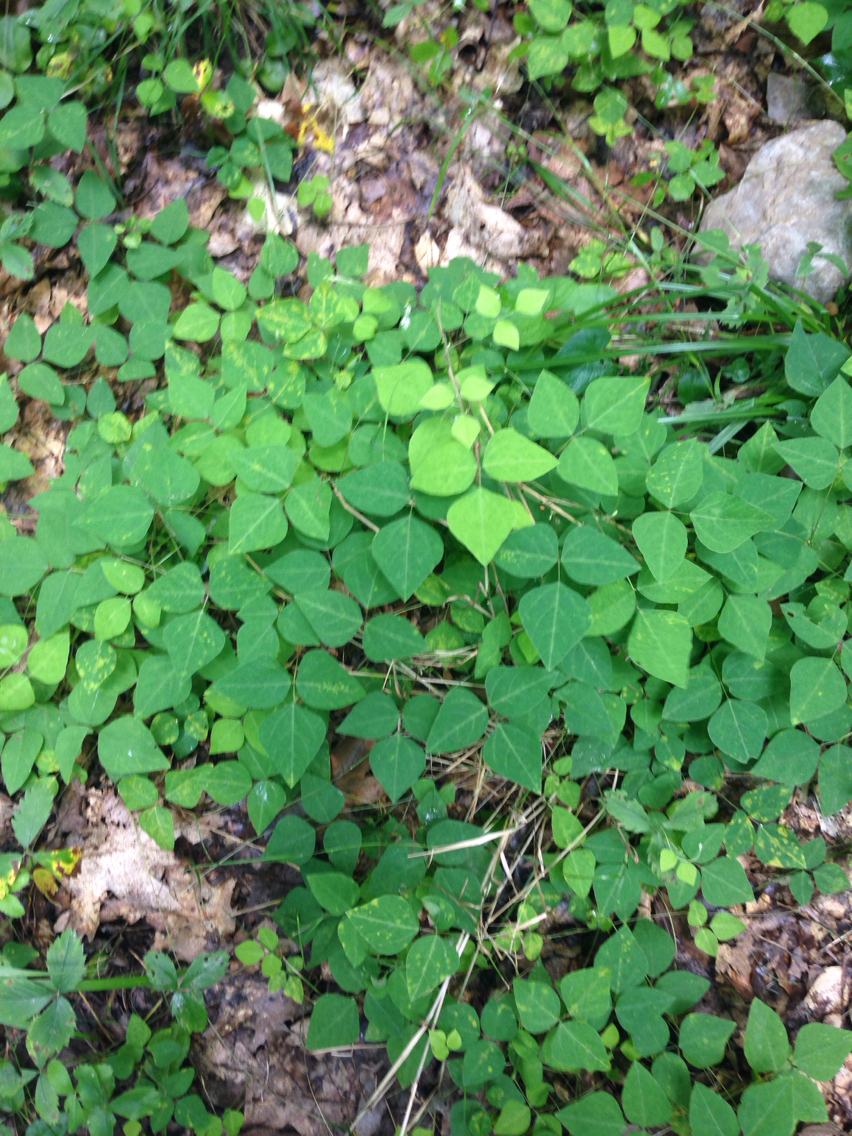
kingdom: Plantae
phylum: Tracheophyta
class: Magnoliopsida
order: Fabales
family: Fabaceae
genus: Amphicarpaea
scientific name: Amphicarpaea bracteata
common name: American hog peanut
